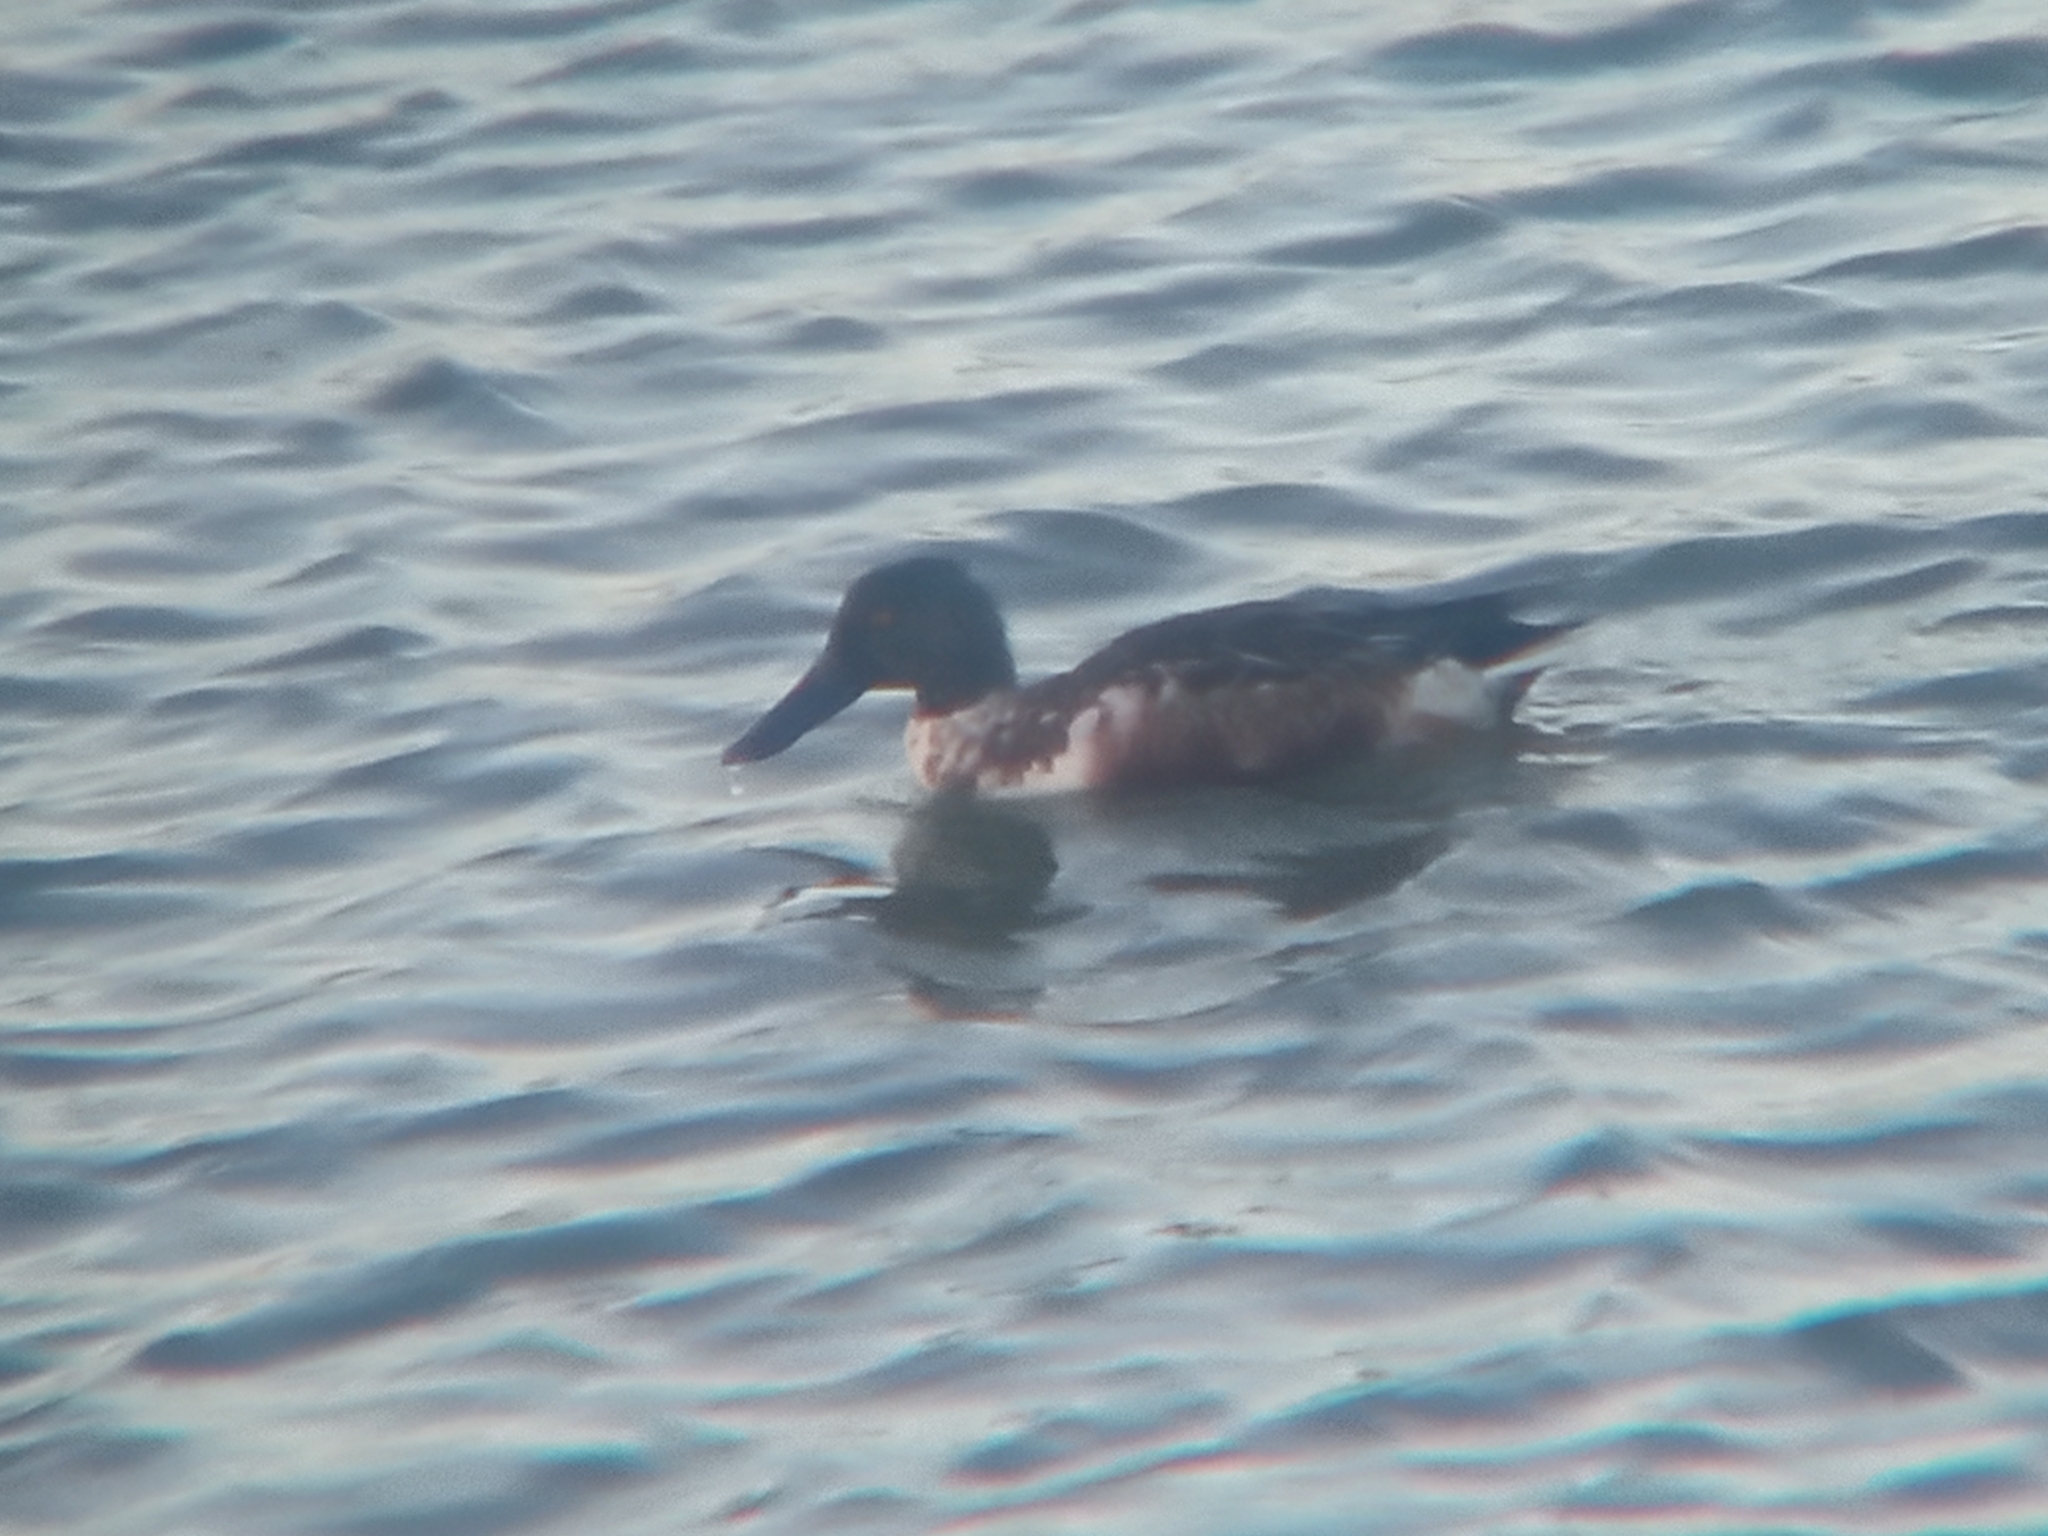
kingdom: Animalia
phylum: Chordata
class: Aves
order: Anseriformes
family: Anatidae
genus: Spatula
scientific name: Spatula clypeata
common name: Northern shoveler
